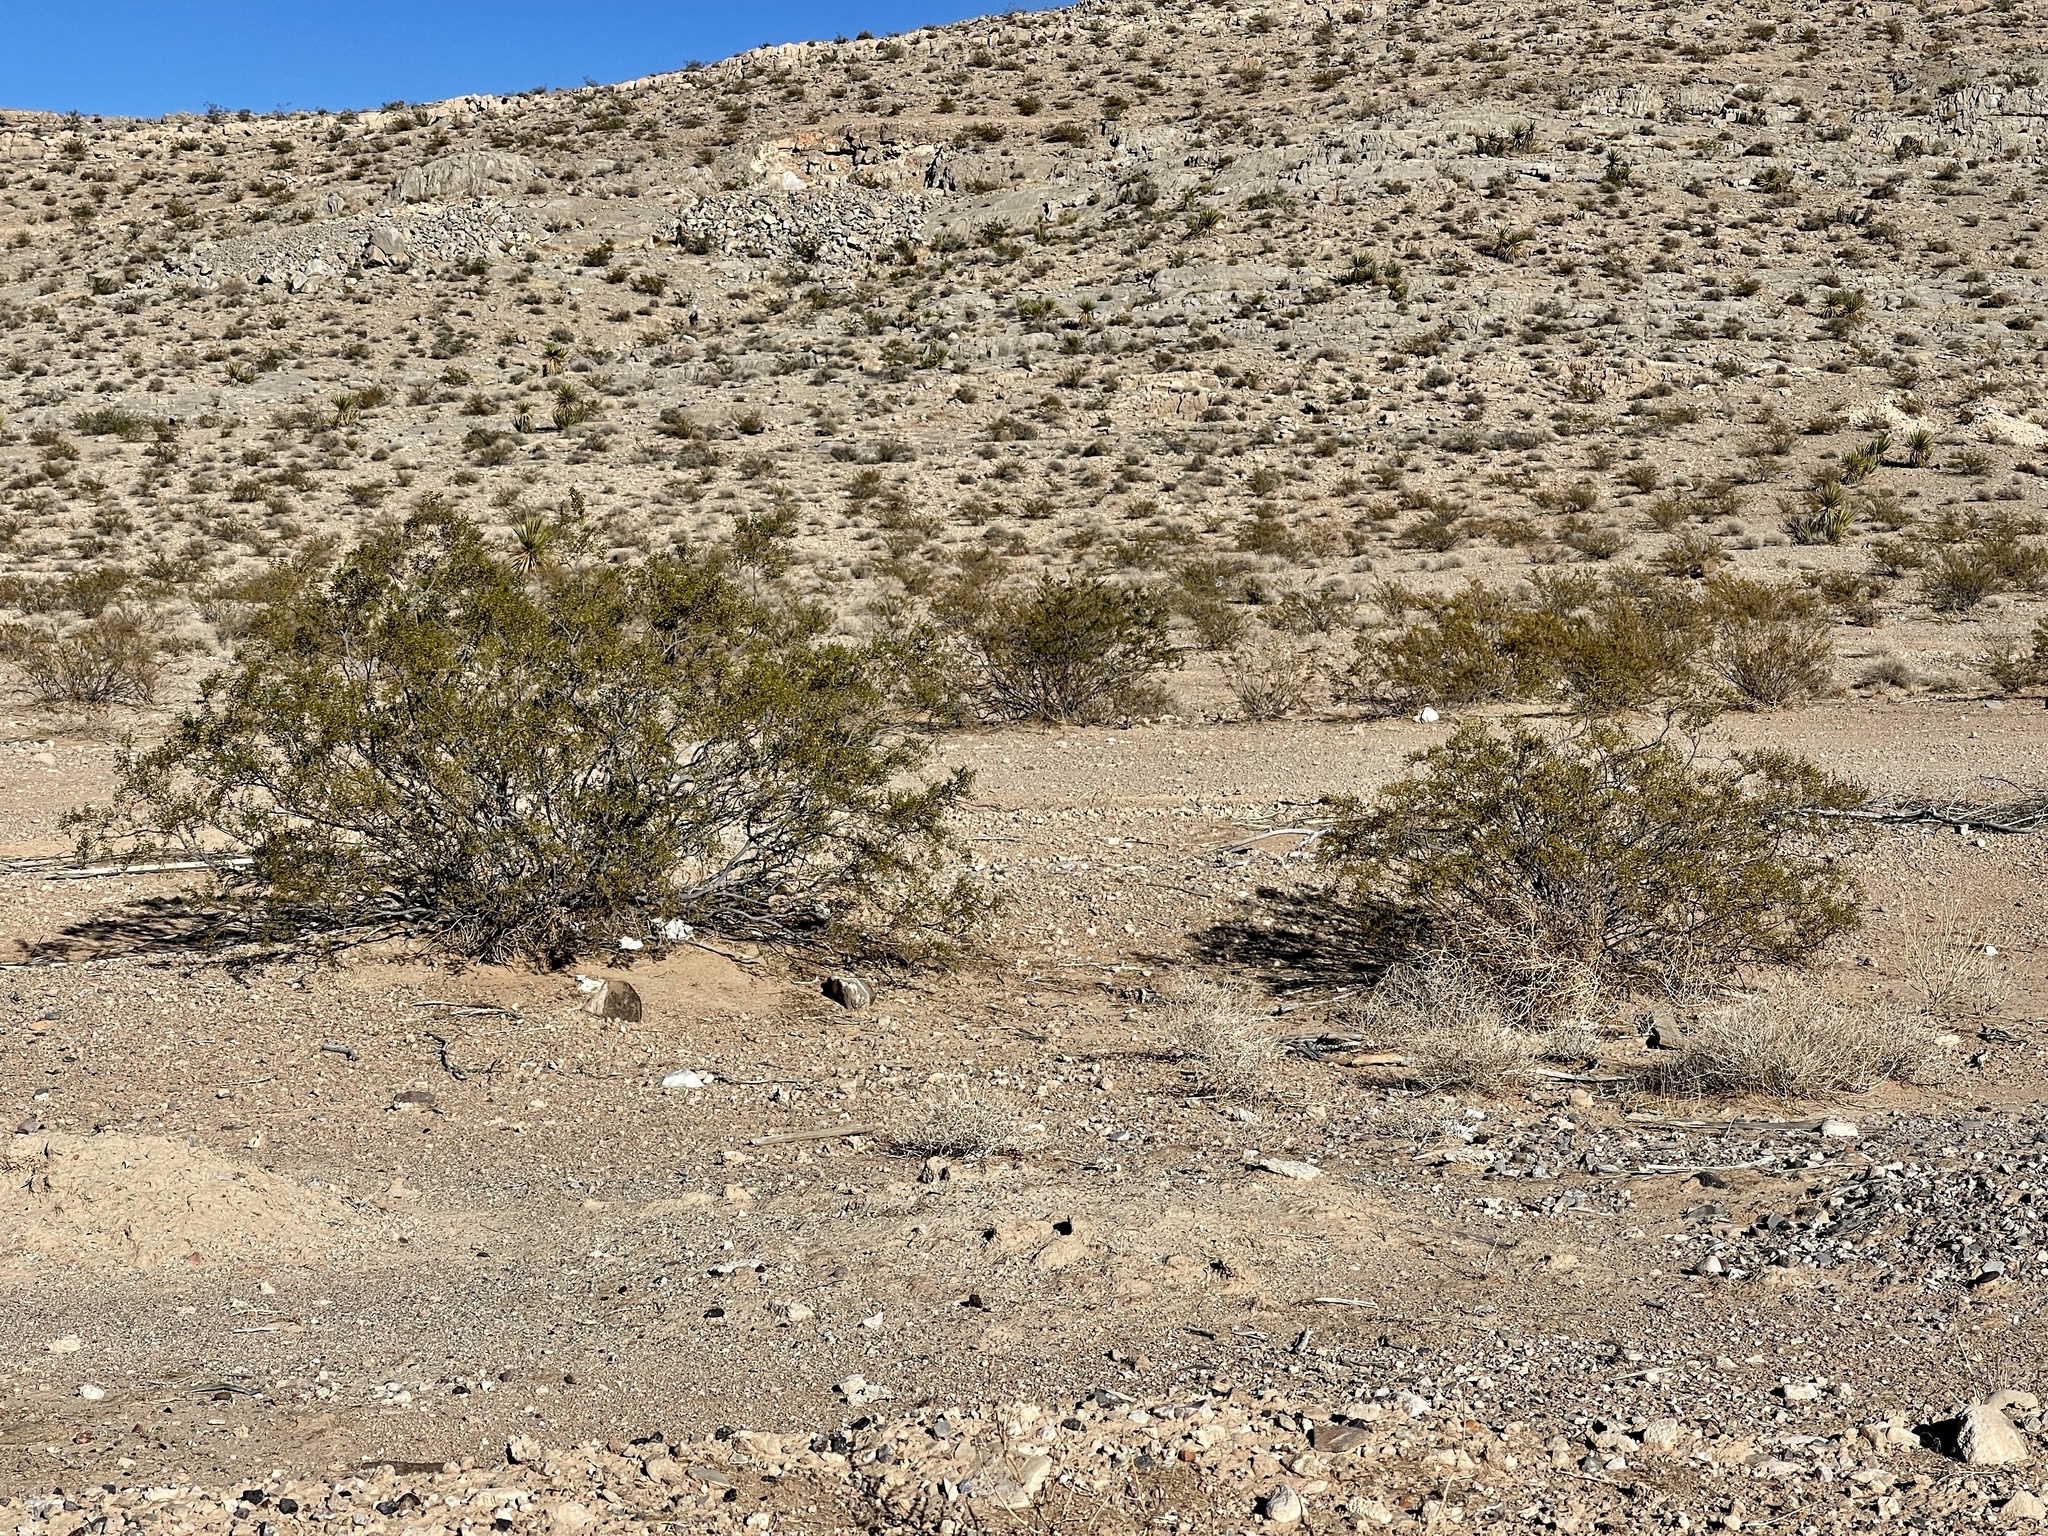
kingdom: Plantae
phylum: Tracheophyta
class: Magnoliopsida
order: Zygophyllales
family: Zygophyllaceae
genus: Larrea
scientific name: Larrea tridentata
